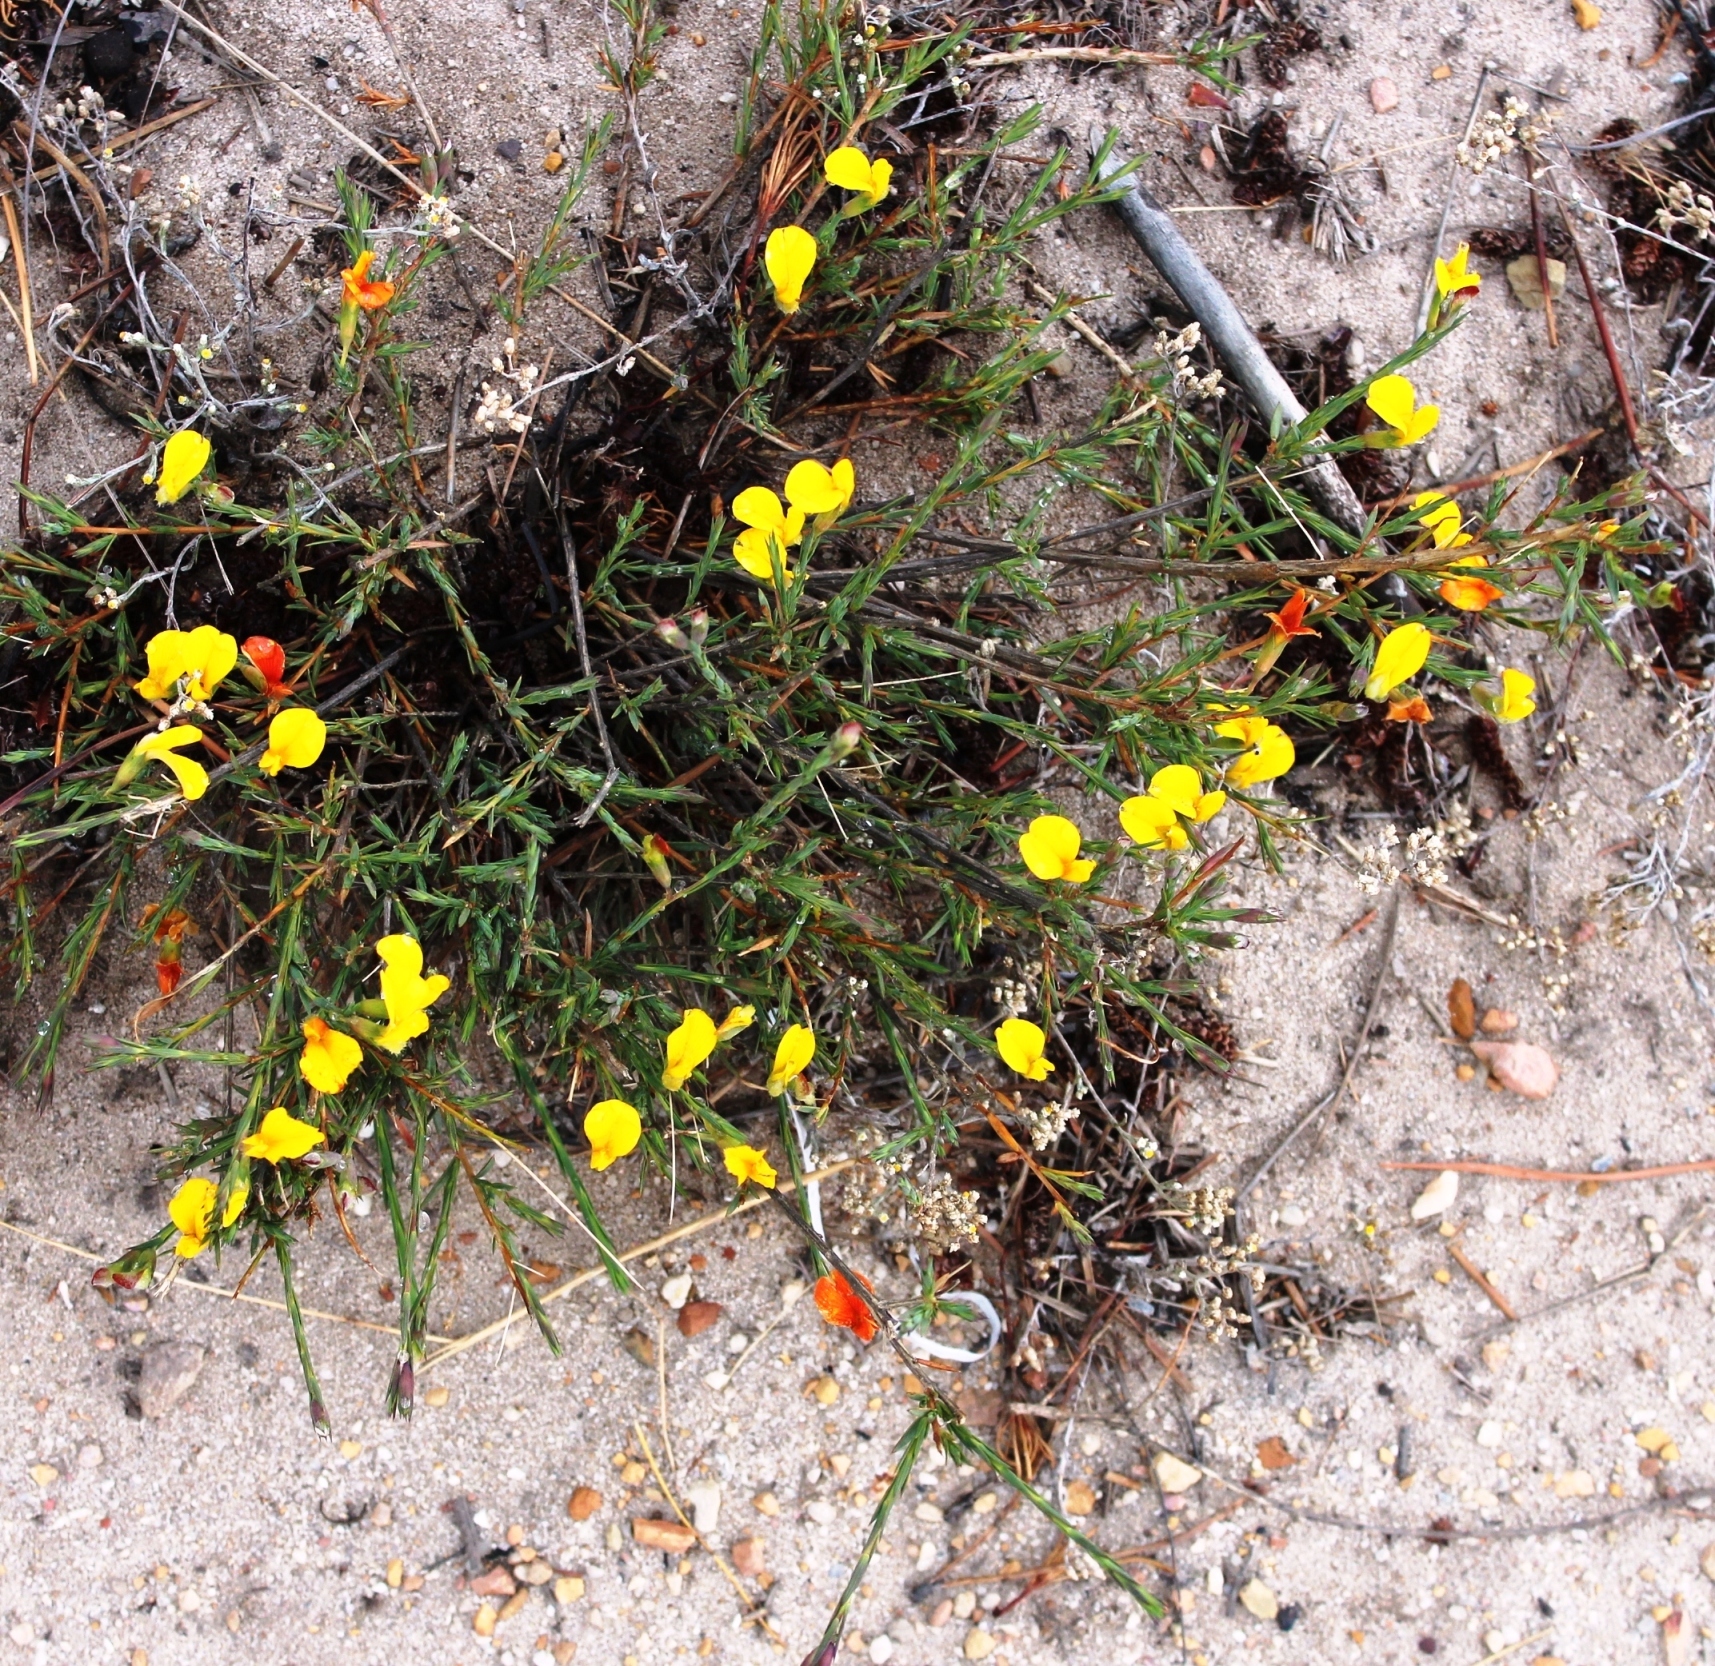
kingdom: Plantae
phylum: Tracheophyta
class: Magnoliopsida
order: Fabales
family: Fabaceae
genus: Aspalathus
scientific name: Aspalathus angustifolia
